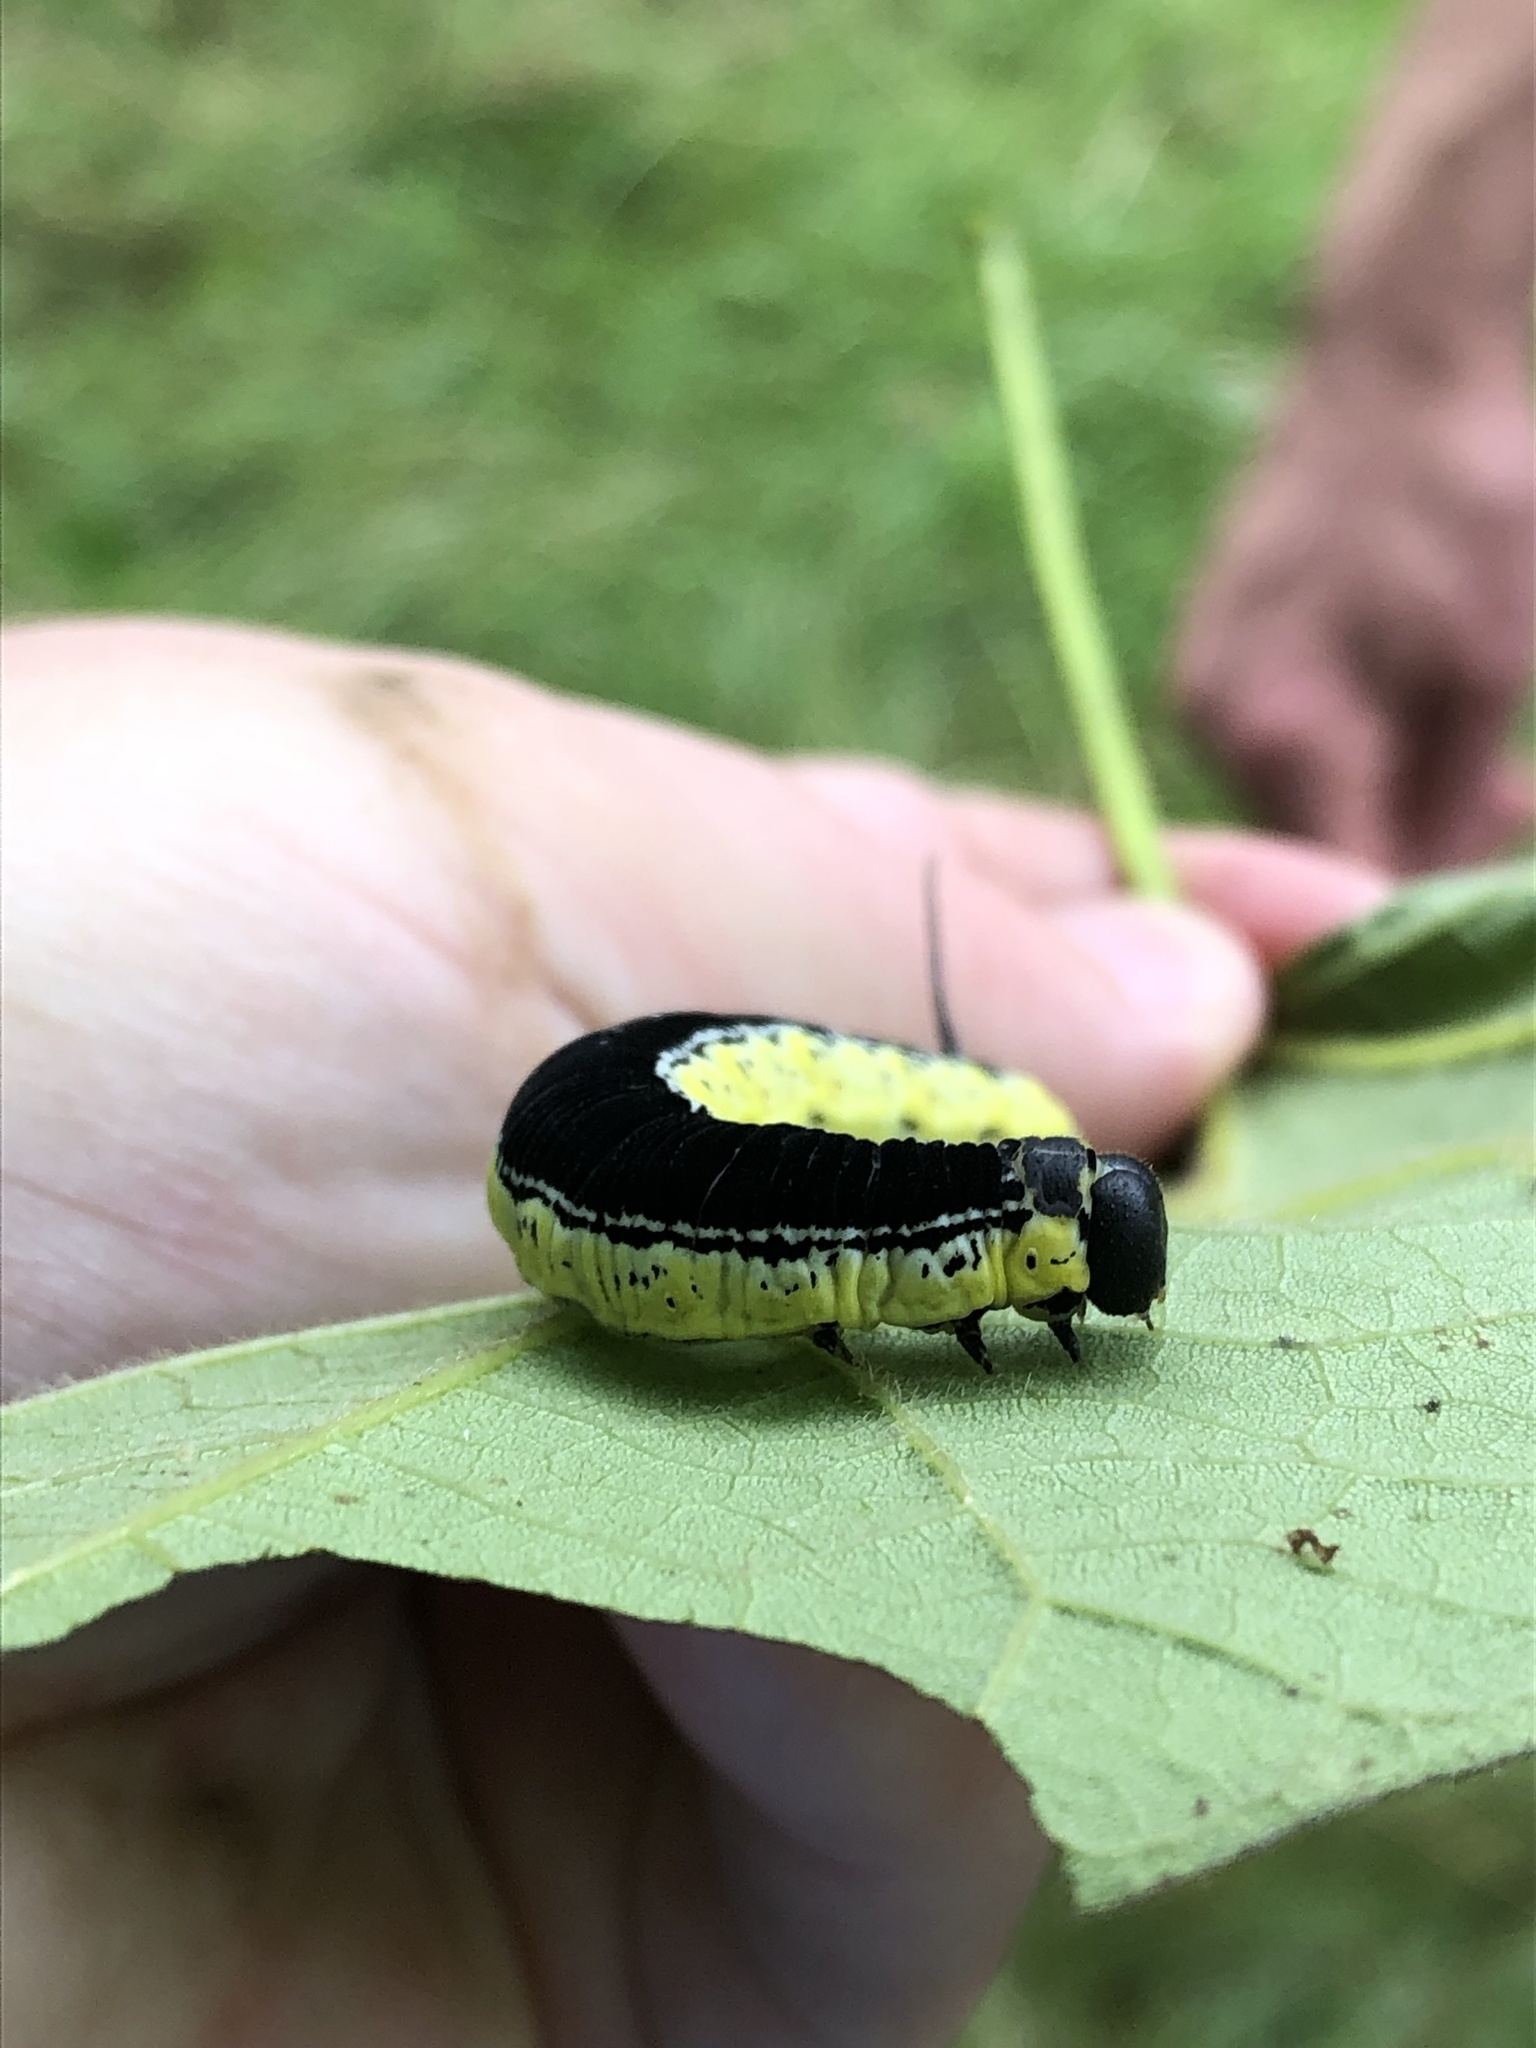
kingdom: Animalia
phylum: Arthropoda
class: Insecta
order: Lepidoptera
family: Sphingidae
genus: Ceratomia
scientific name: Ceratomia catalpae
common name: Catalpa hornworm
